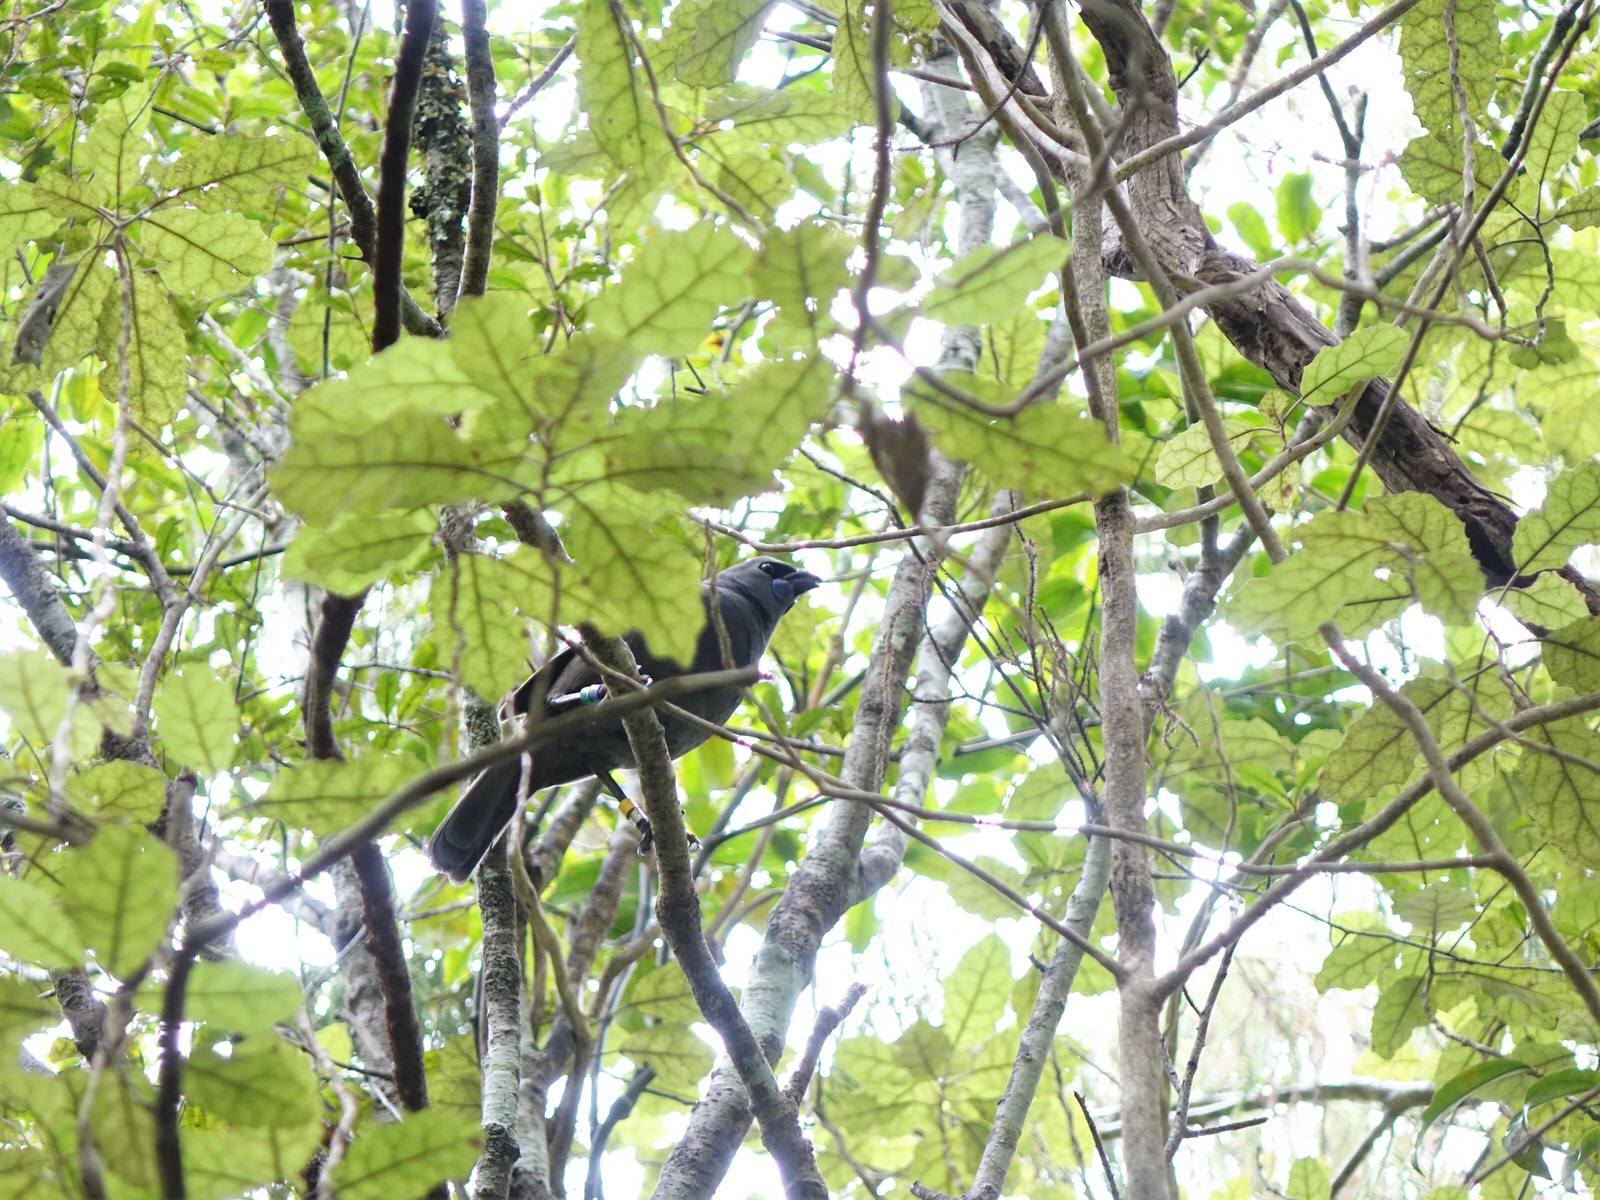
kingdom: Animalia
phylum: Chordata
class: Aves
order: Passeriformes
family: Callaeatidae
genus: Callaeas
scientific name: Callaeas cinereus
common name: South island kokako
